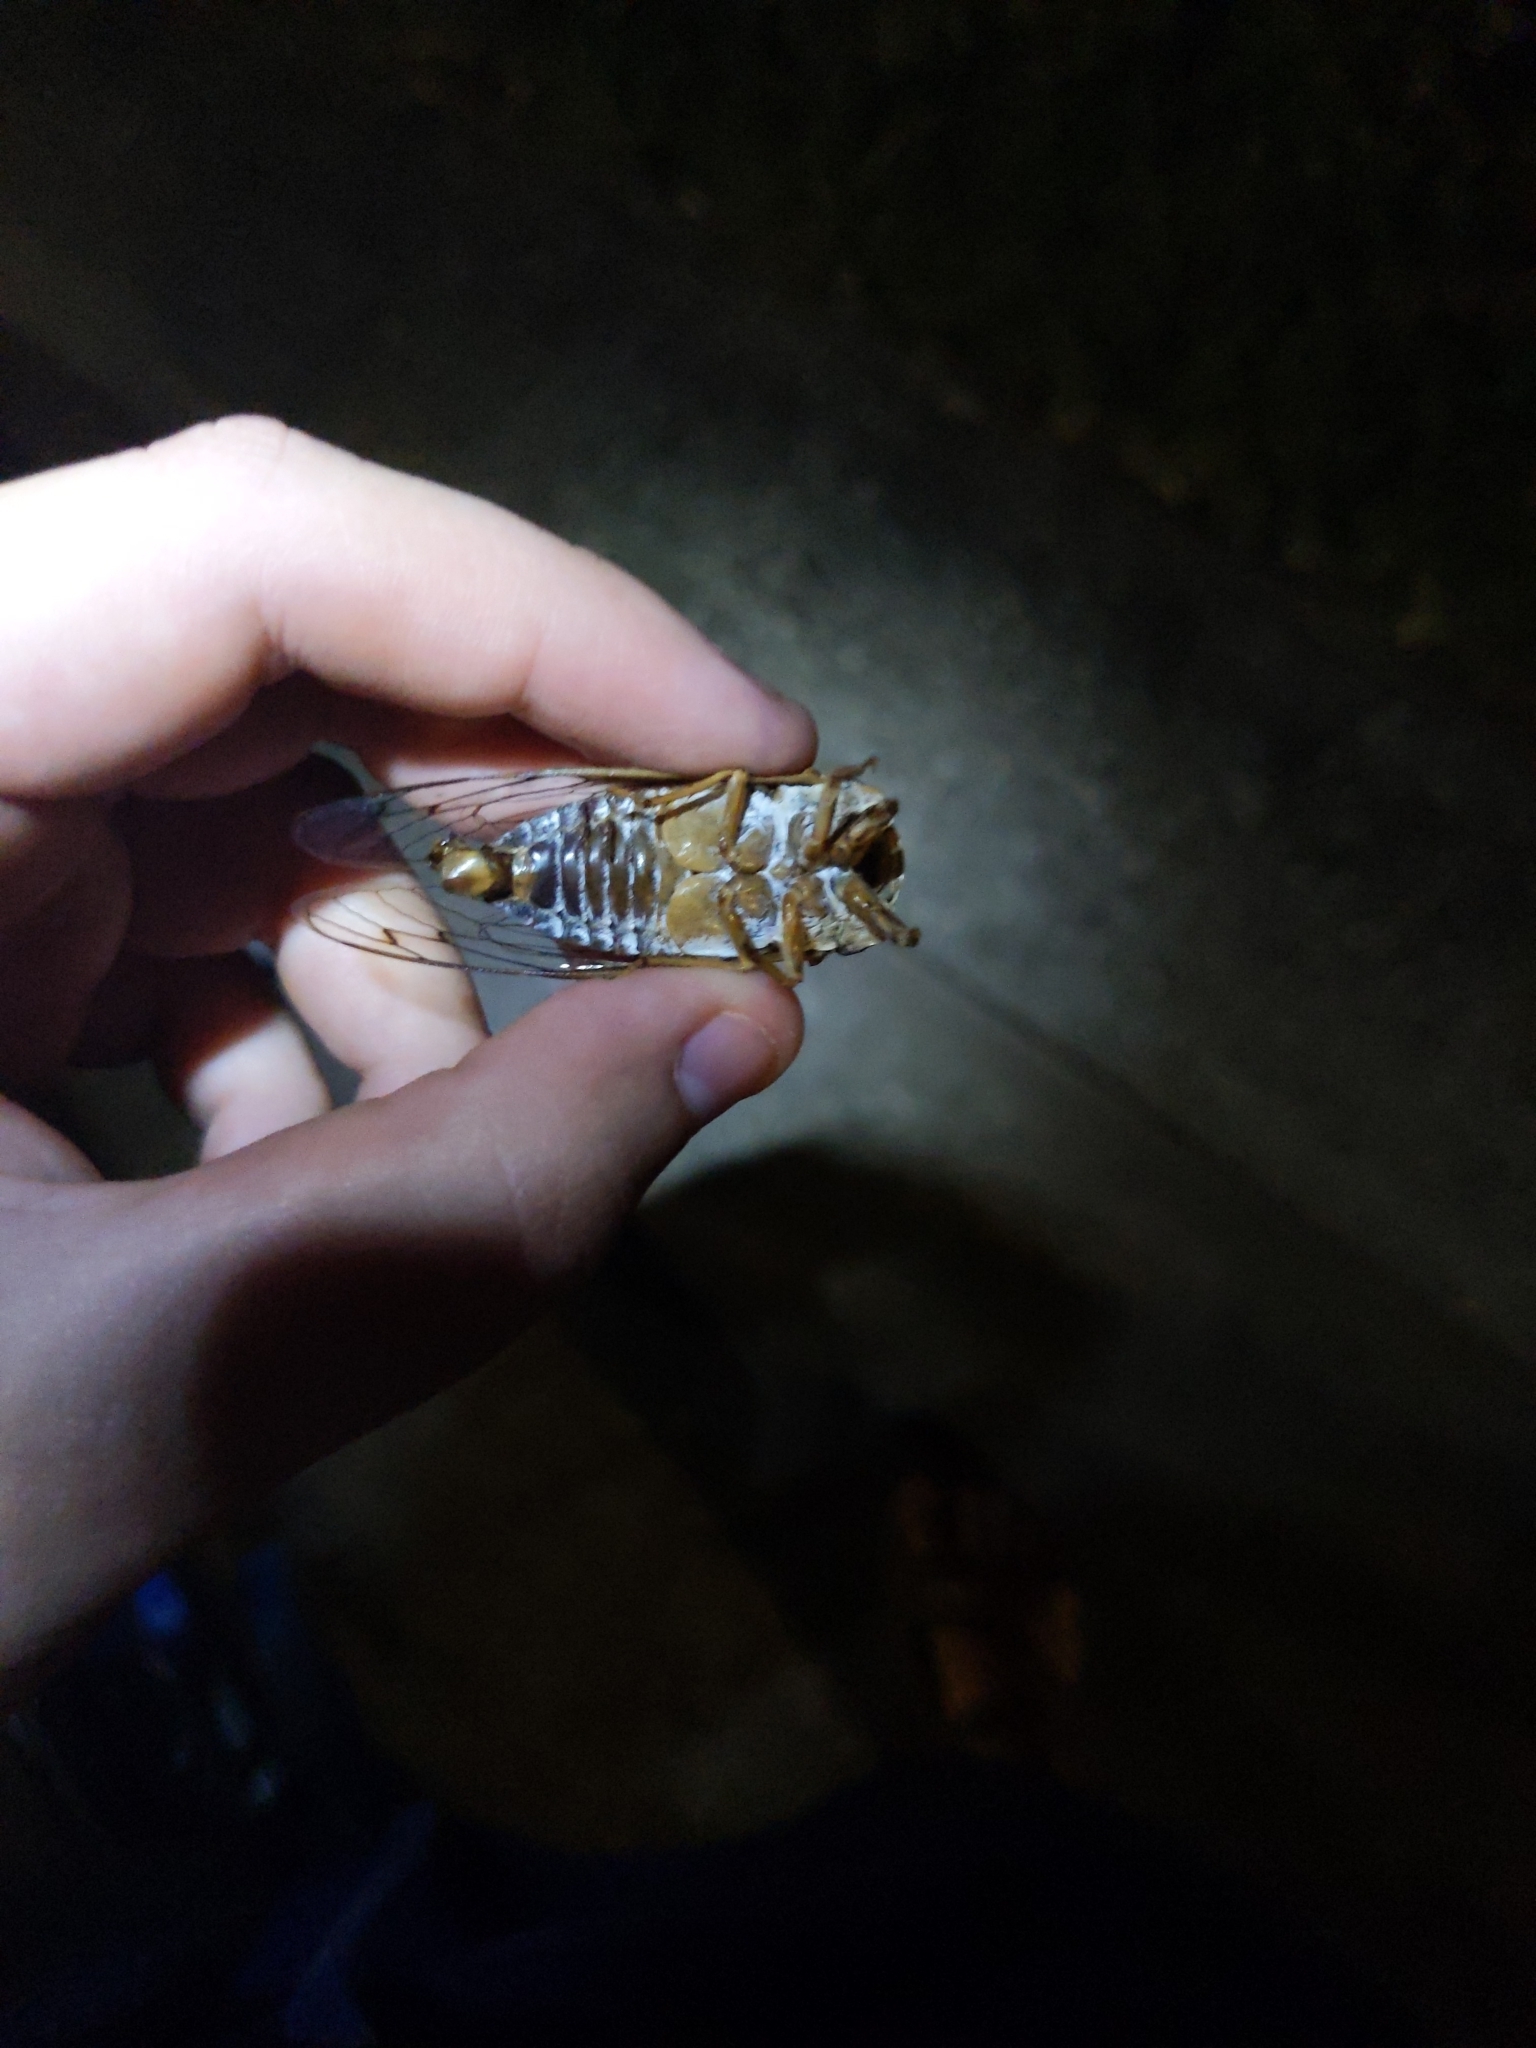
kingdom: Animalia
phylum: Arthropoda
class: Insecta
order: Hemiptera
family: Cicadidae
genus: Megatibicen
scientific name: Megatibicen resh
